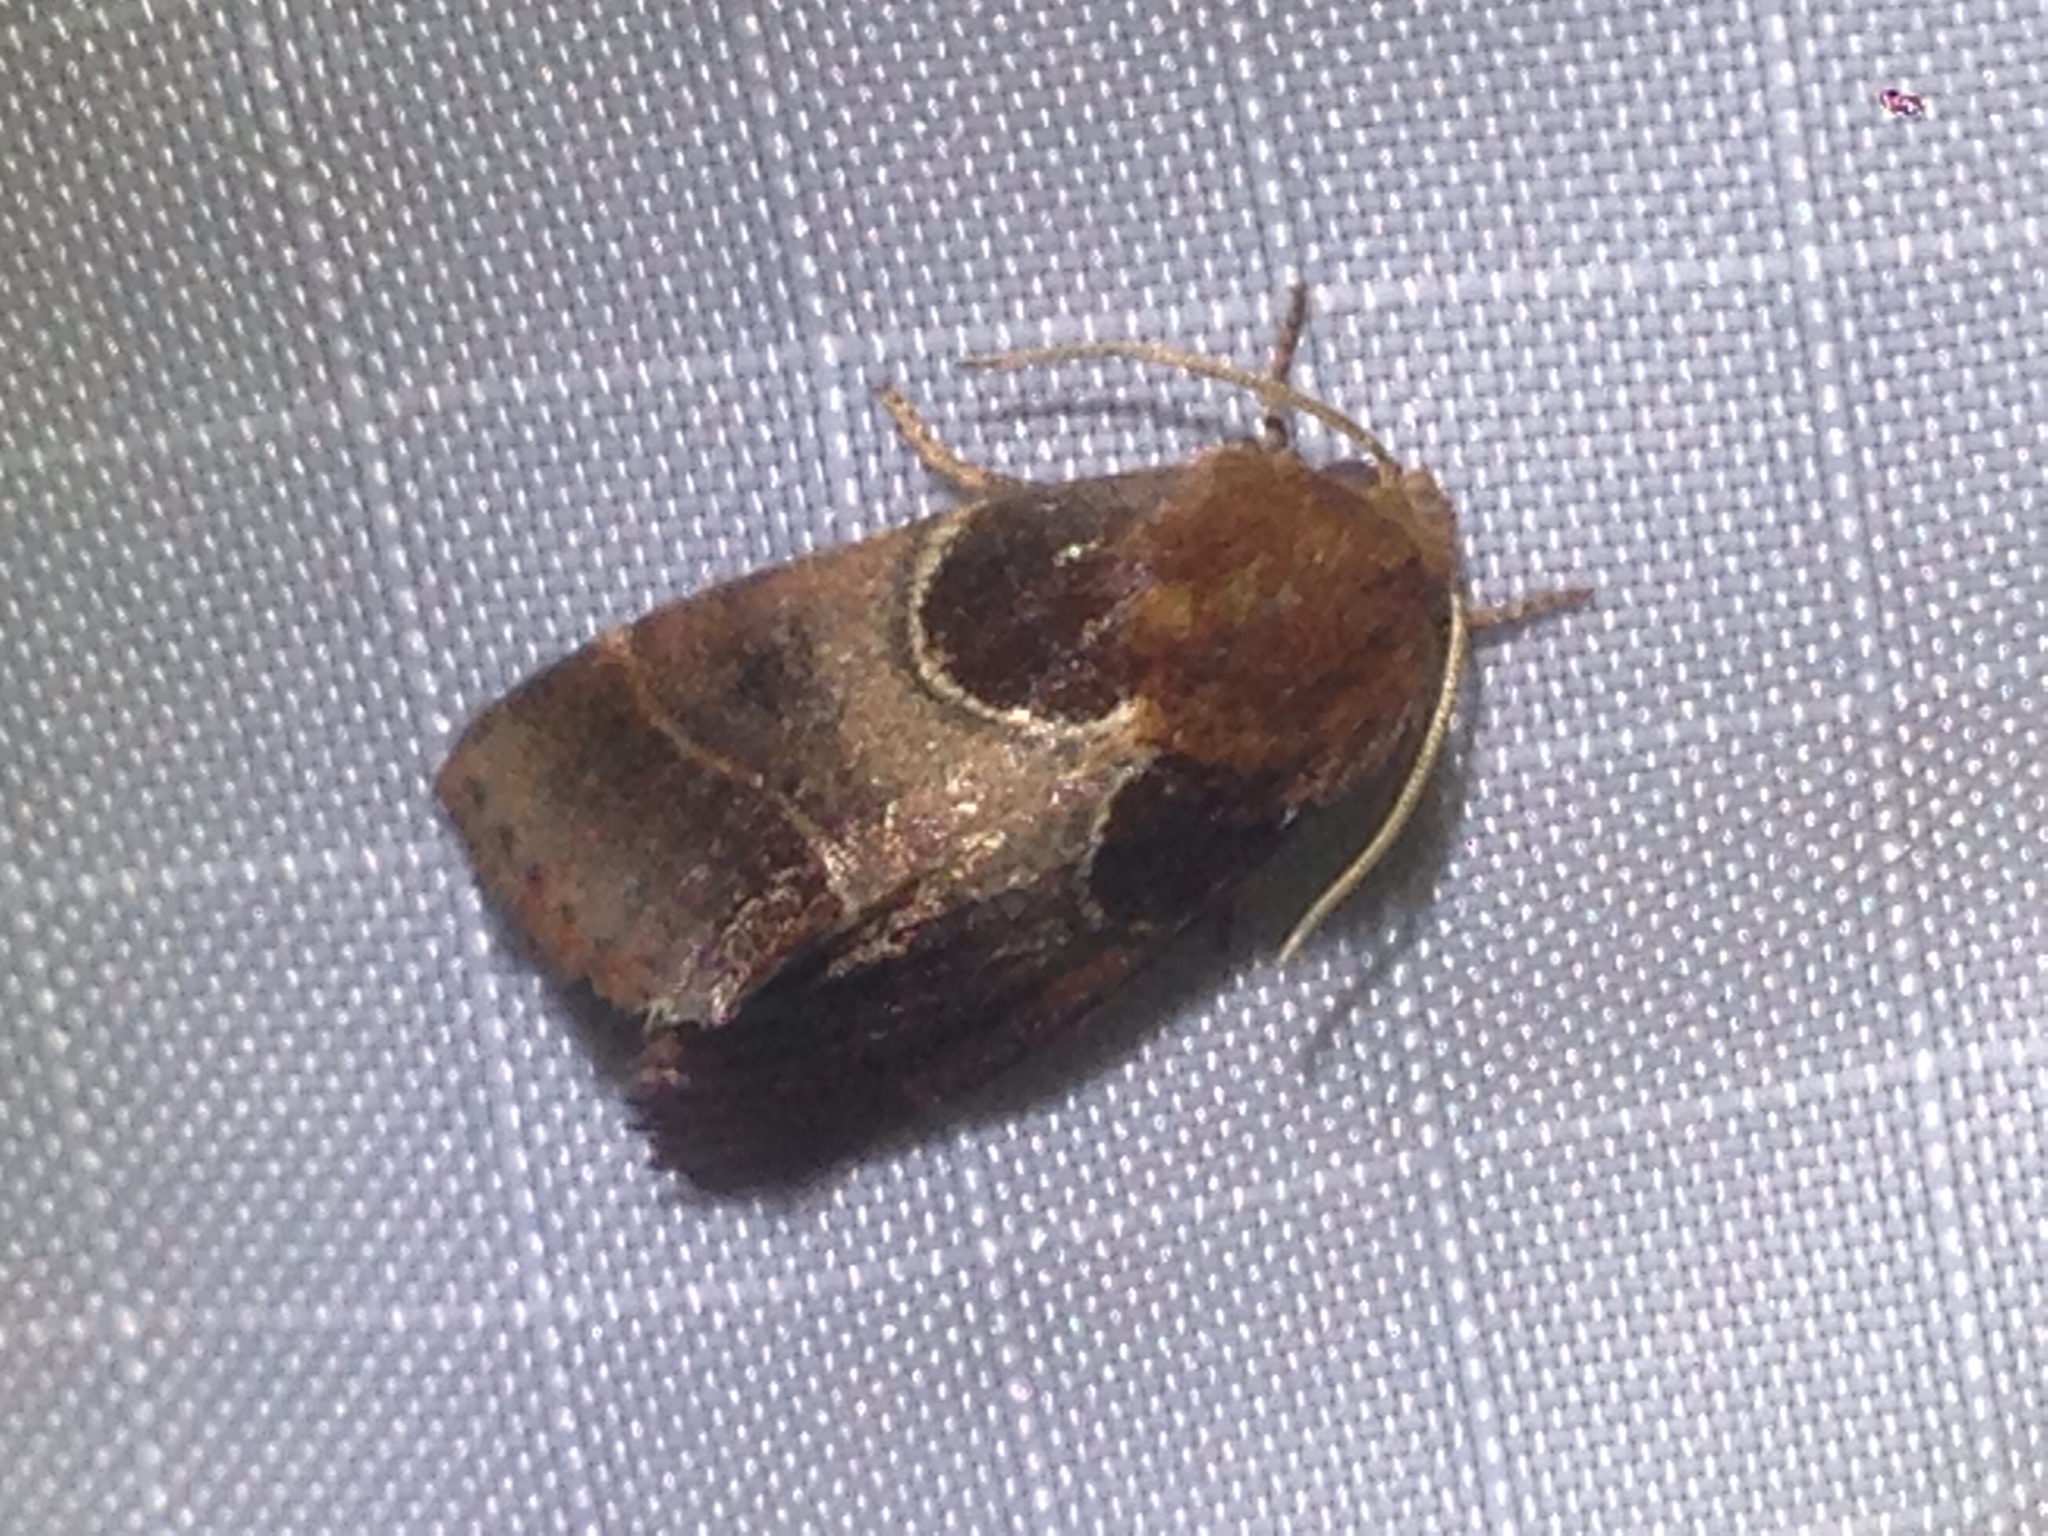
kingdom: Animalia
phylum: Arthropoda
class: Insecta
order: Lepidoptera
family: Noctuidae
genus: Schinia
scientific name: Schinia arcigera
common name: Arcigera flower moth
